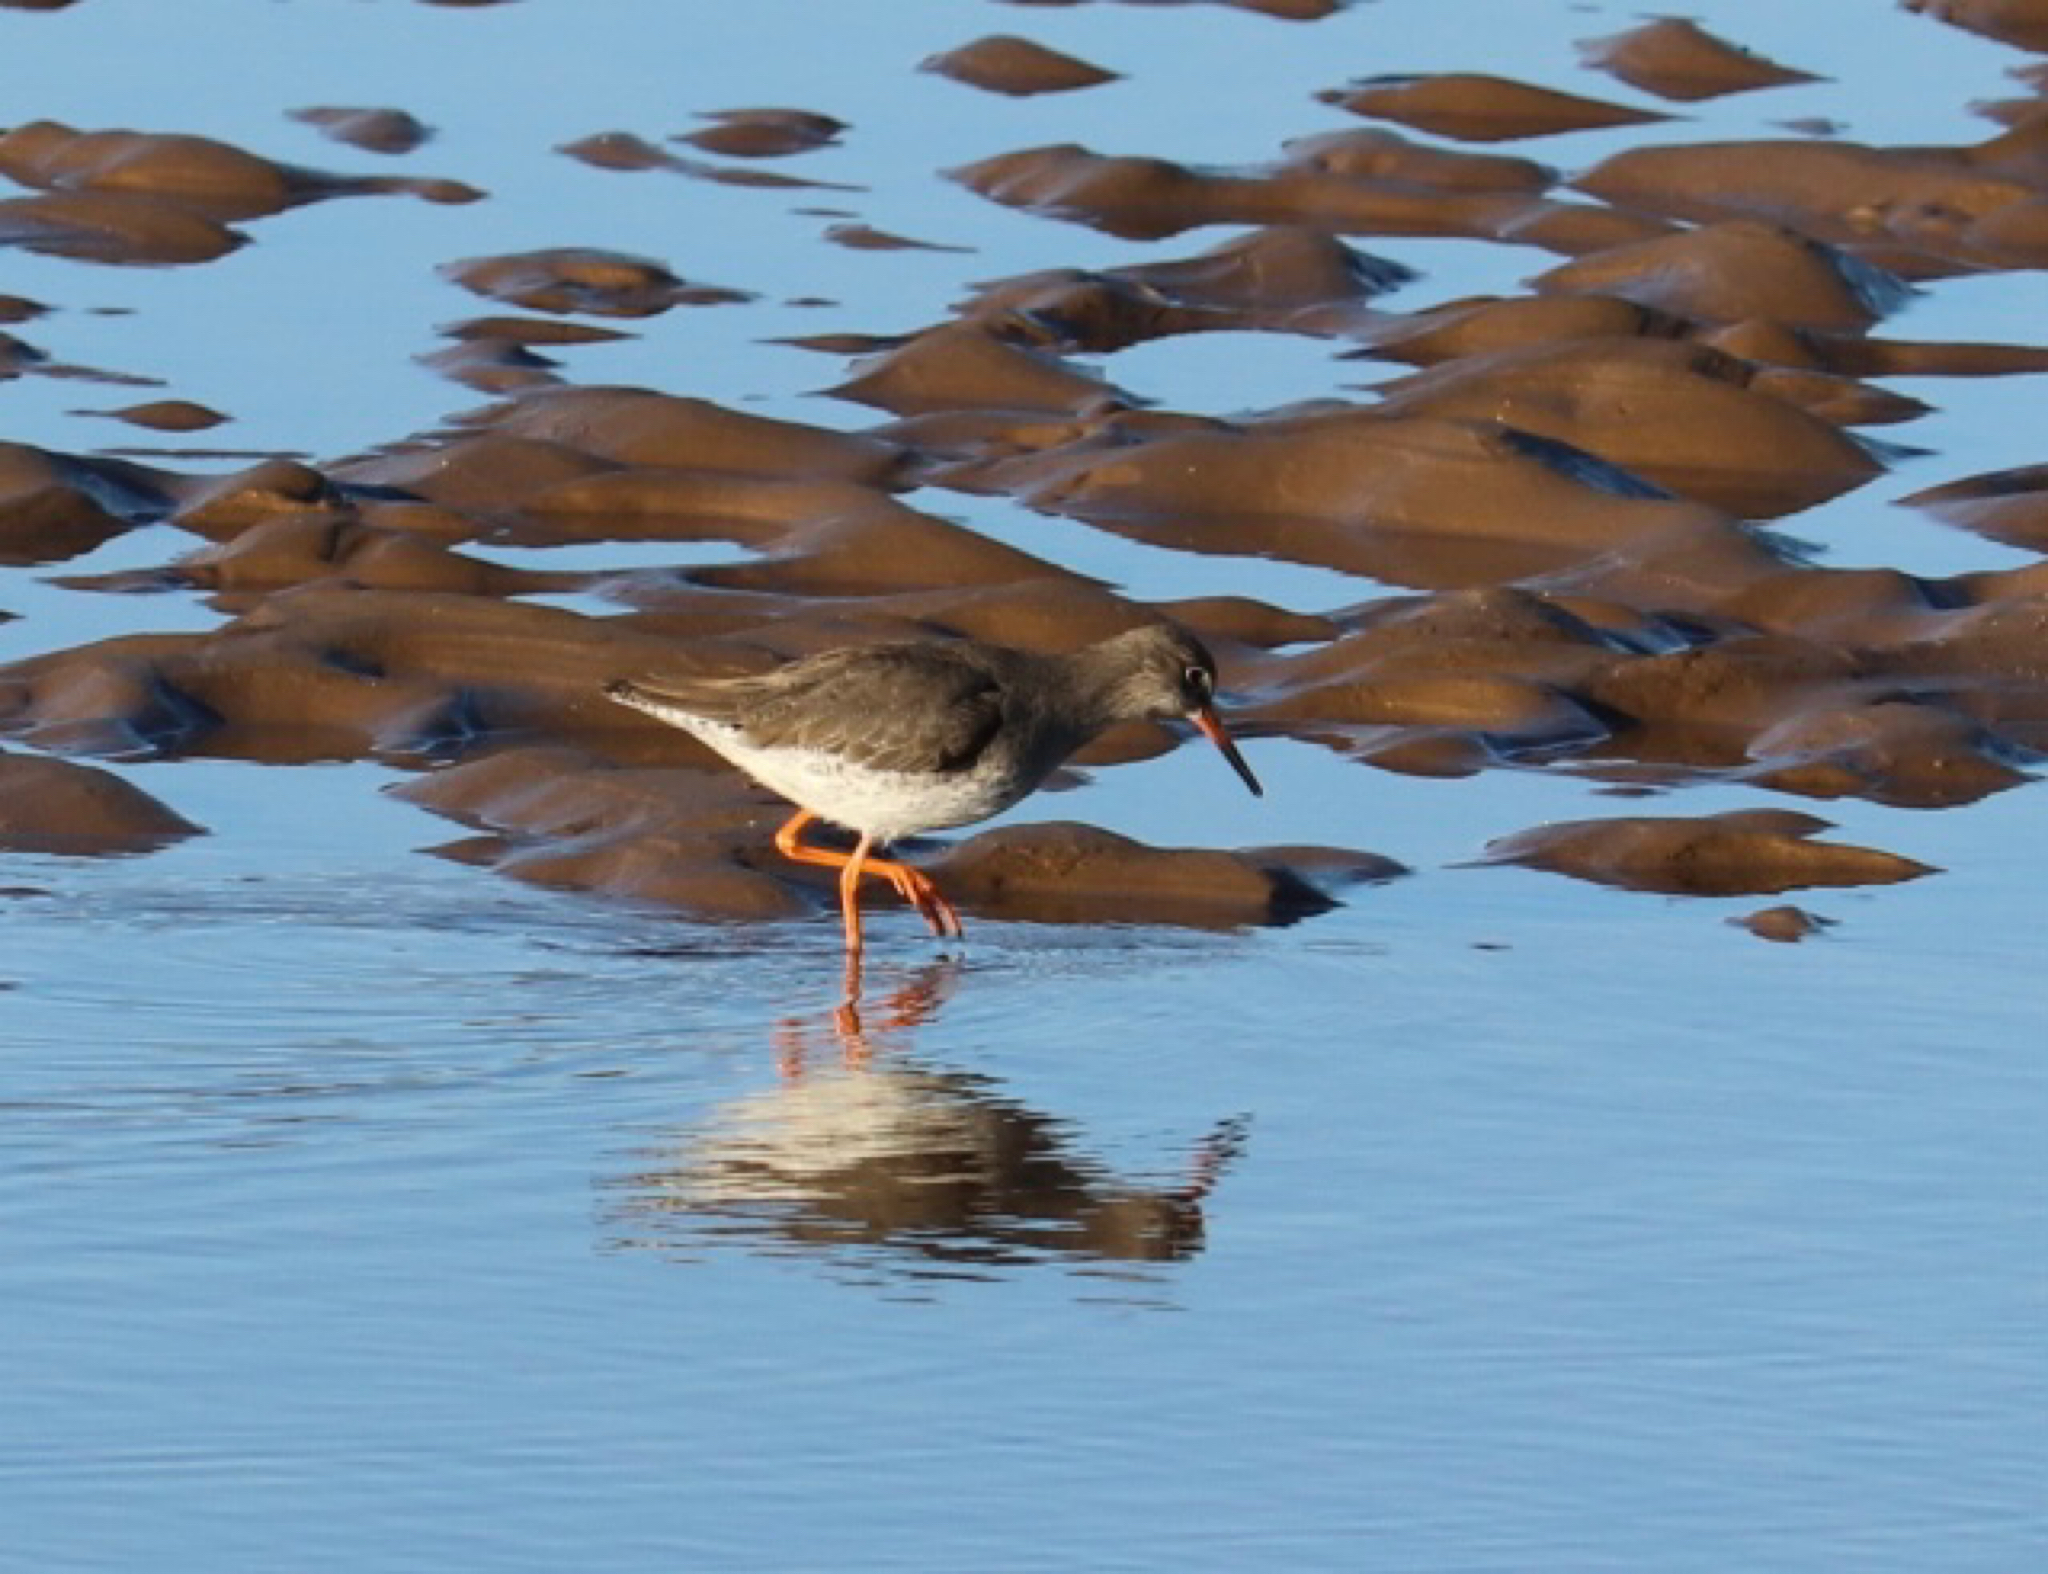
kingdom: Animalia
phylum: Chordata
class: Aves
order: Charadriiformes
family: Scolopacidae
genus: Tringa
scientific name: Tringa totanus
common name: Common redshank
